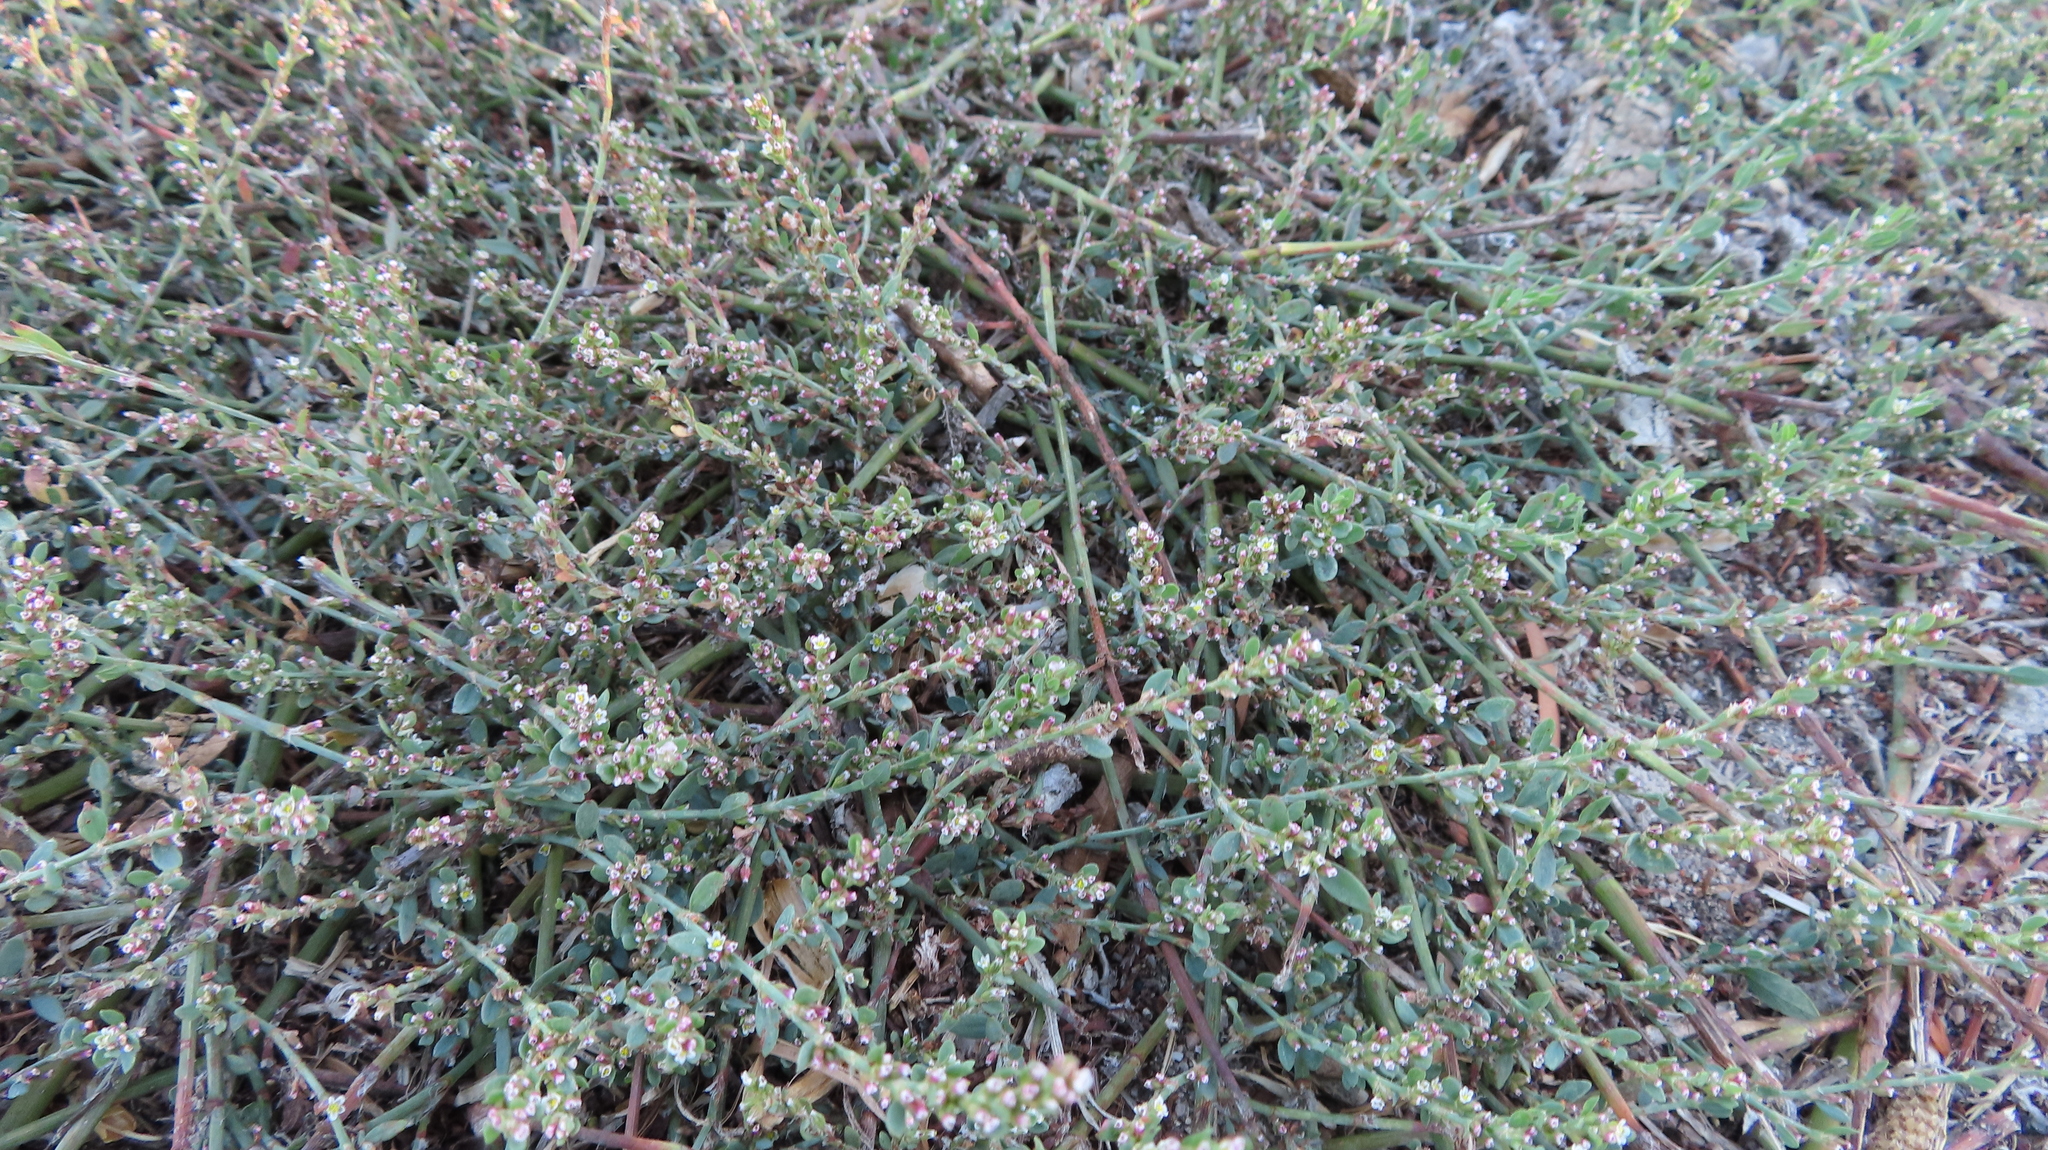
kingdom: Plantae
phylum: Tracheophyta
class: Magnoliopsida
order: Caryophyllales
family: Polygonaceae
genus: Polygonum
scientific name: Polygonum aviculare
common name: Prostrate knotweed
